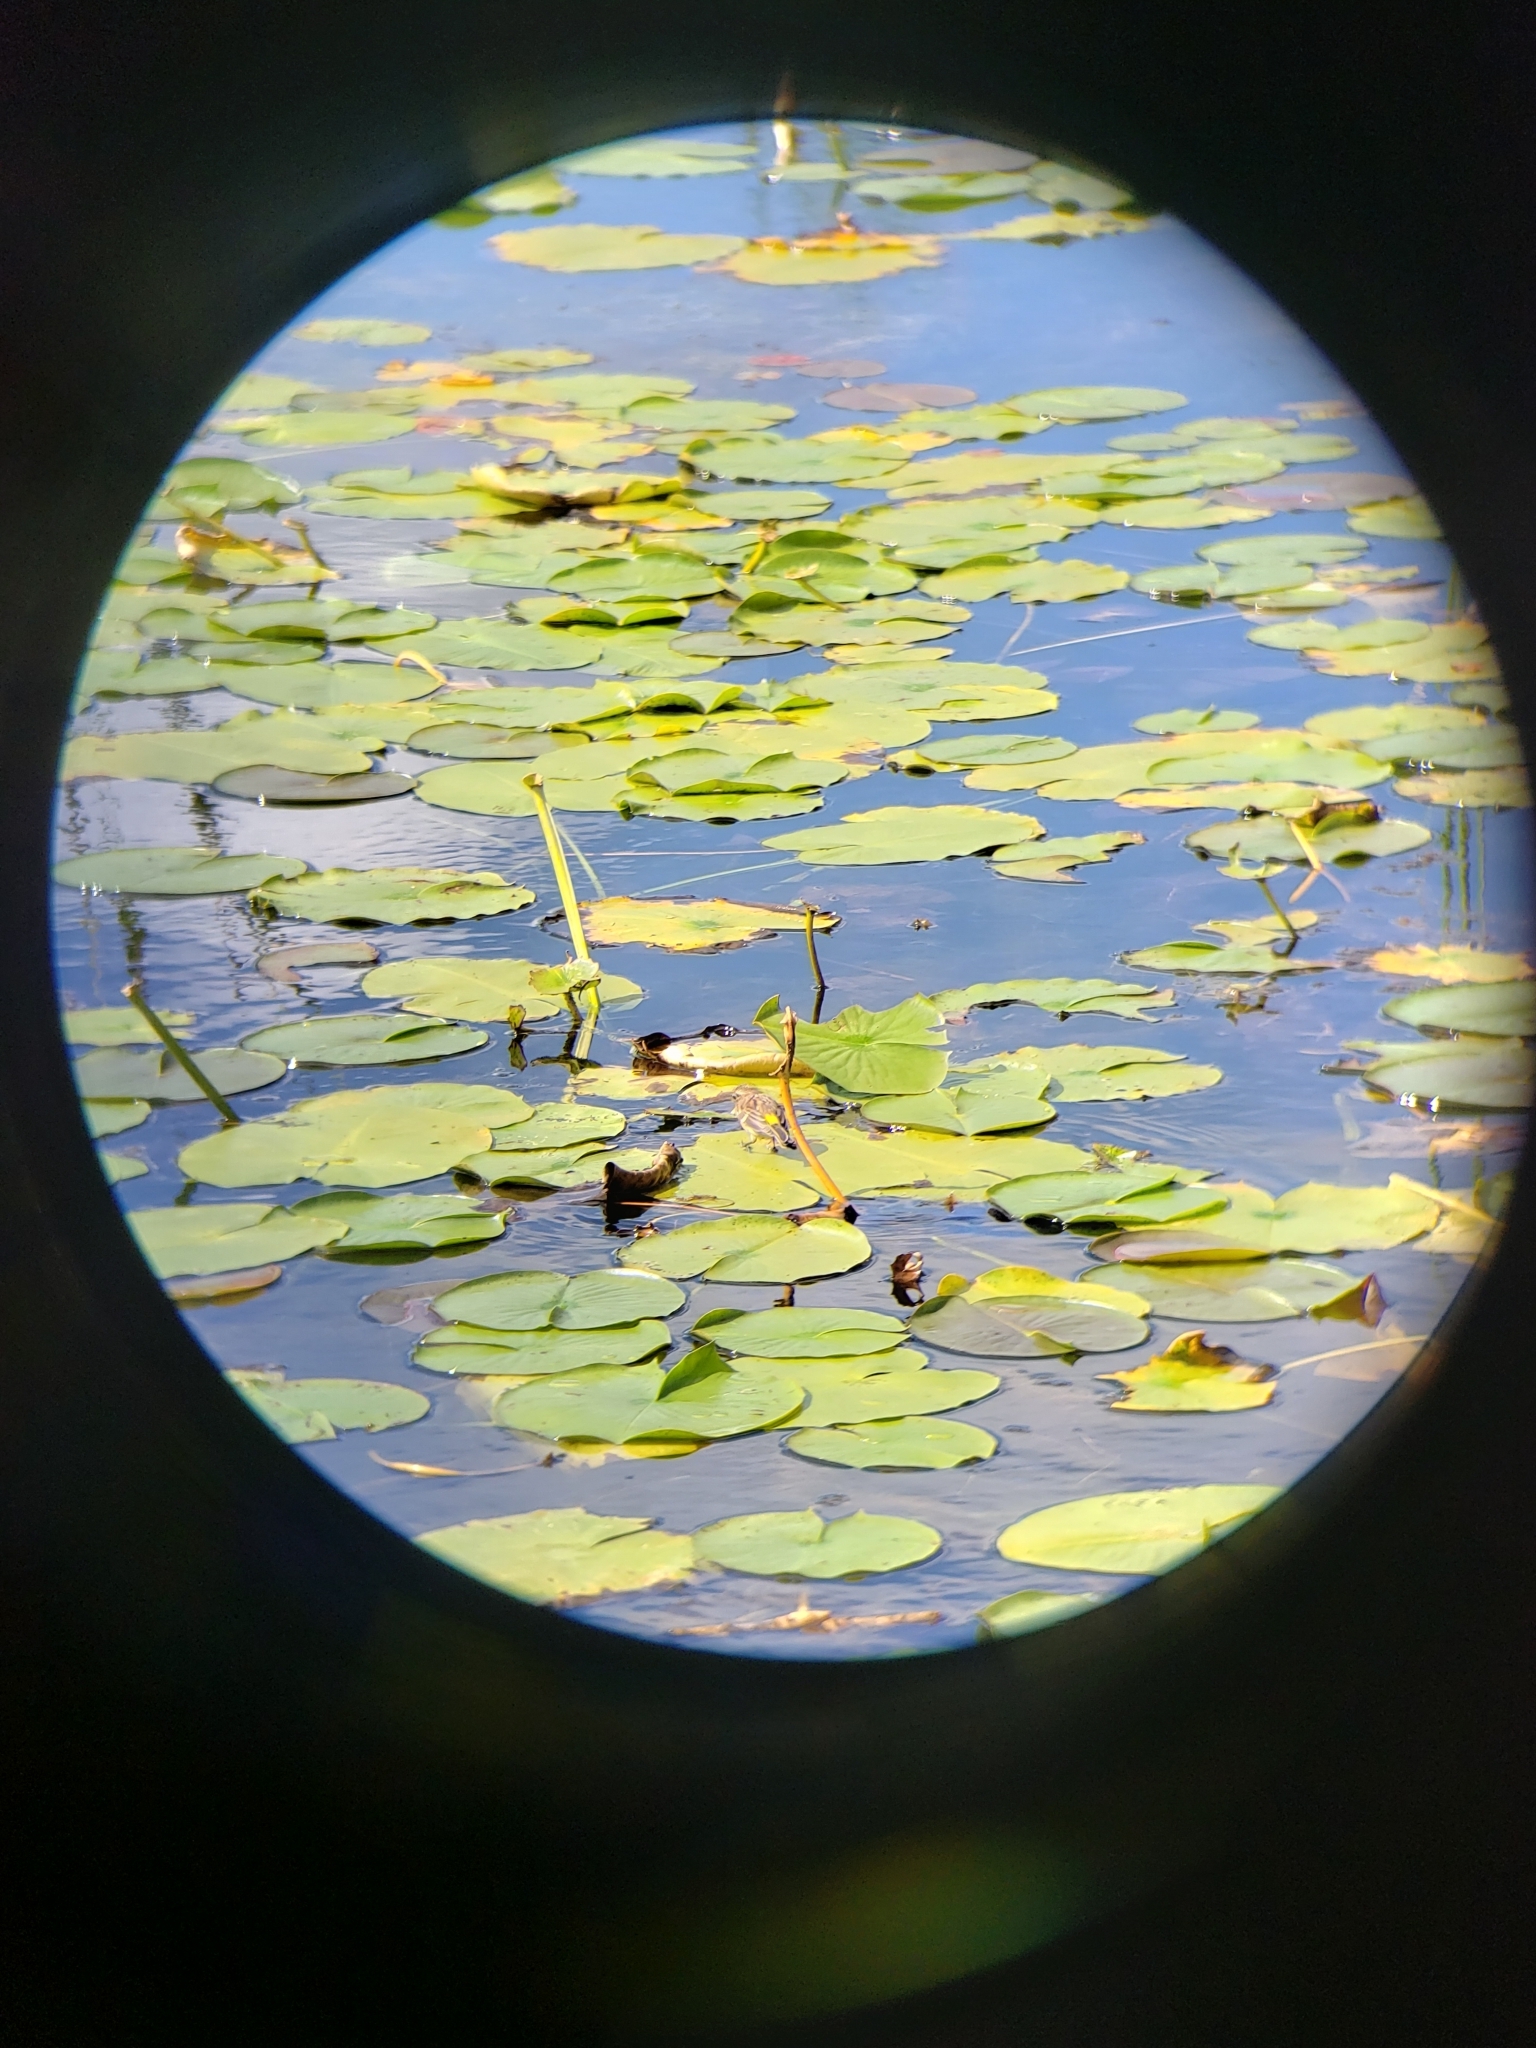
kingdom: Animalia
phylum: Chordata
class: Aves
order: Passeriformes
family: Parulidae
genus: Setophaga
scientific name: Setophaga coronata
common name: Myrtle warbler
